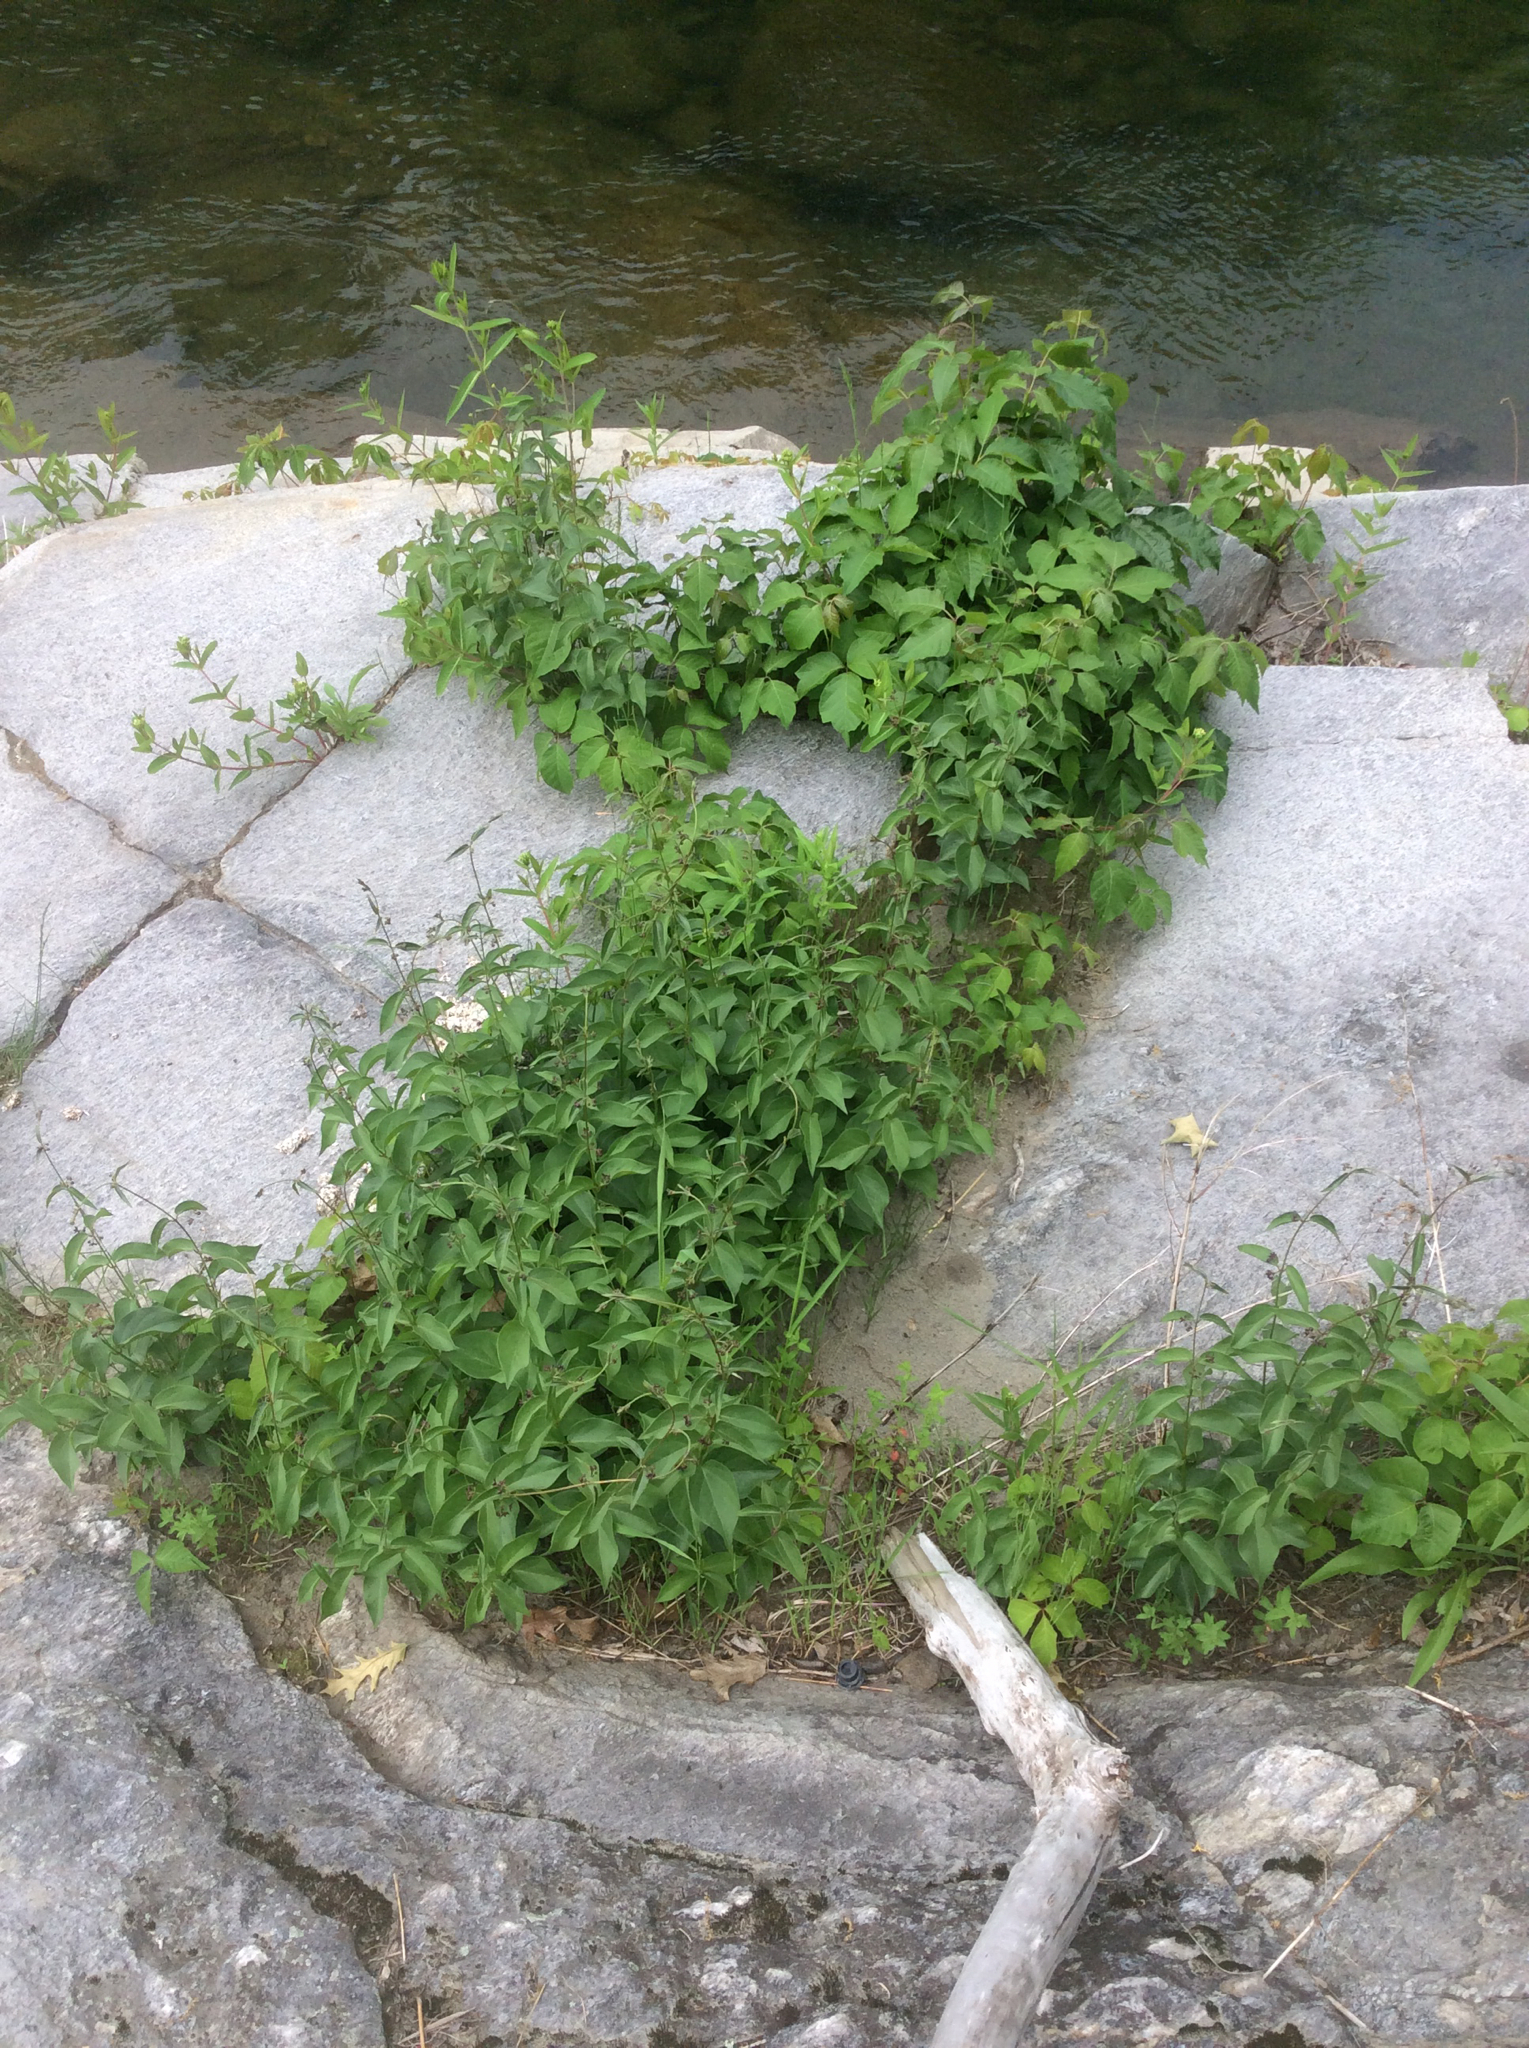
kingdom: Plantae
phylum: Tracheophyta
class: Magnoliopsida
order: Gentianales
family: Apocynaceae
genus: Vincetoxicum
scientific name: Vincetoxicum nigrum
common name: Black swallow-wort
